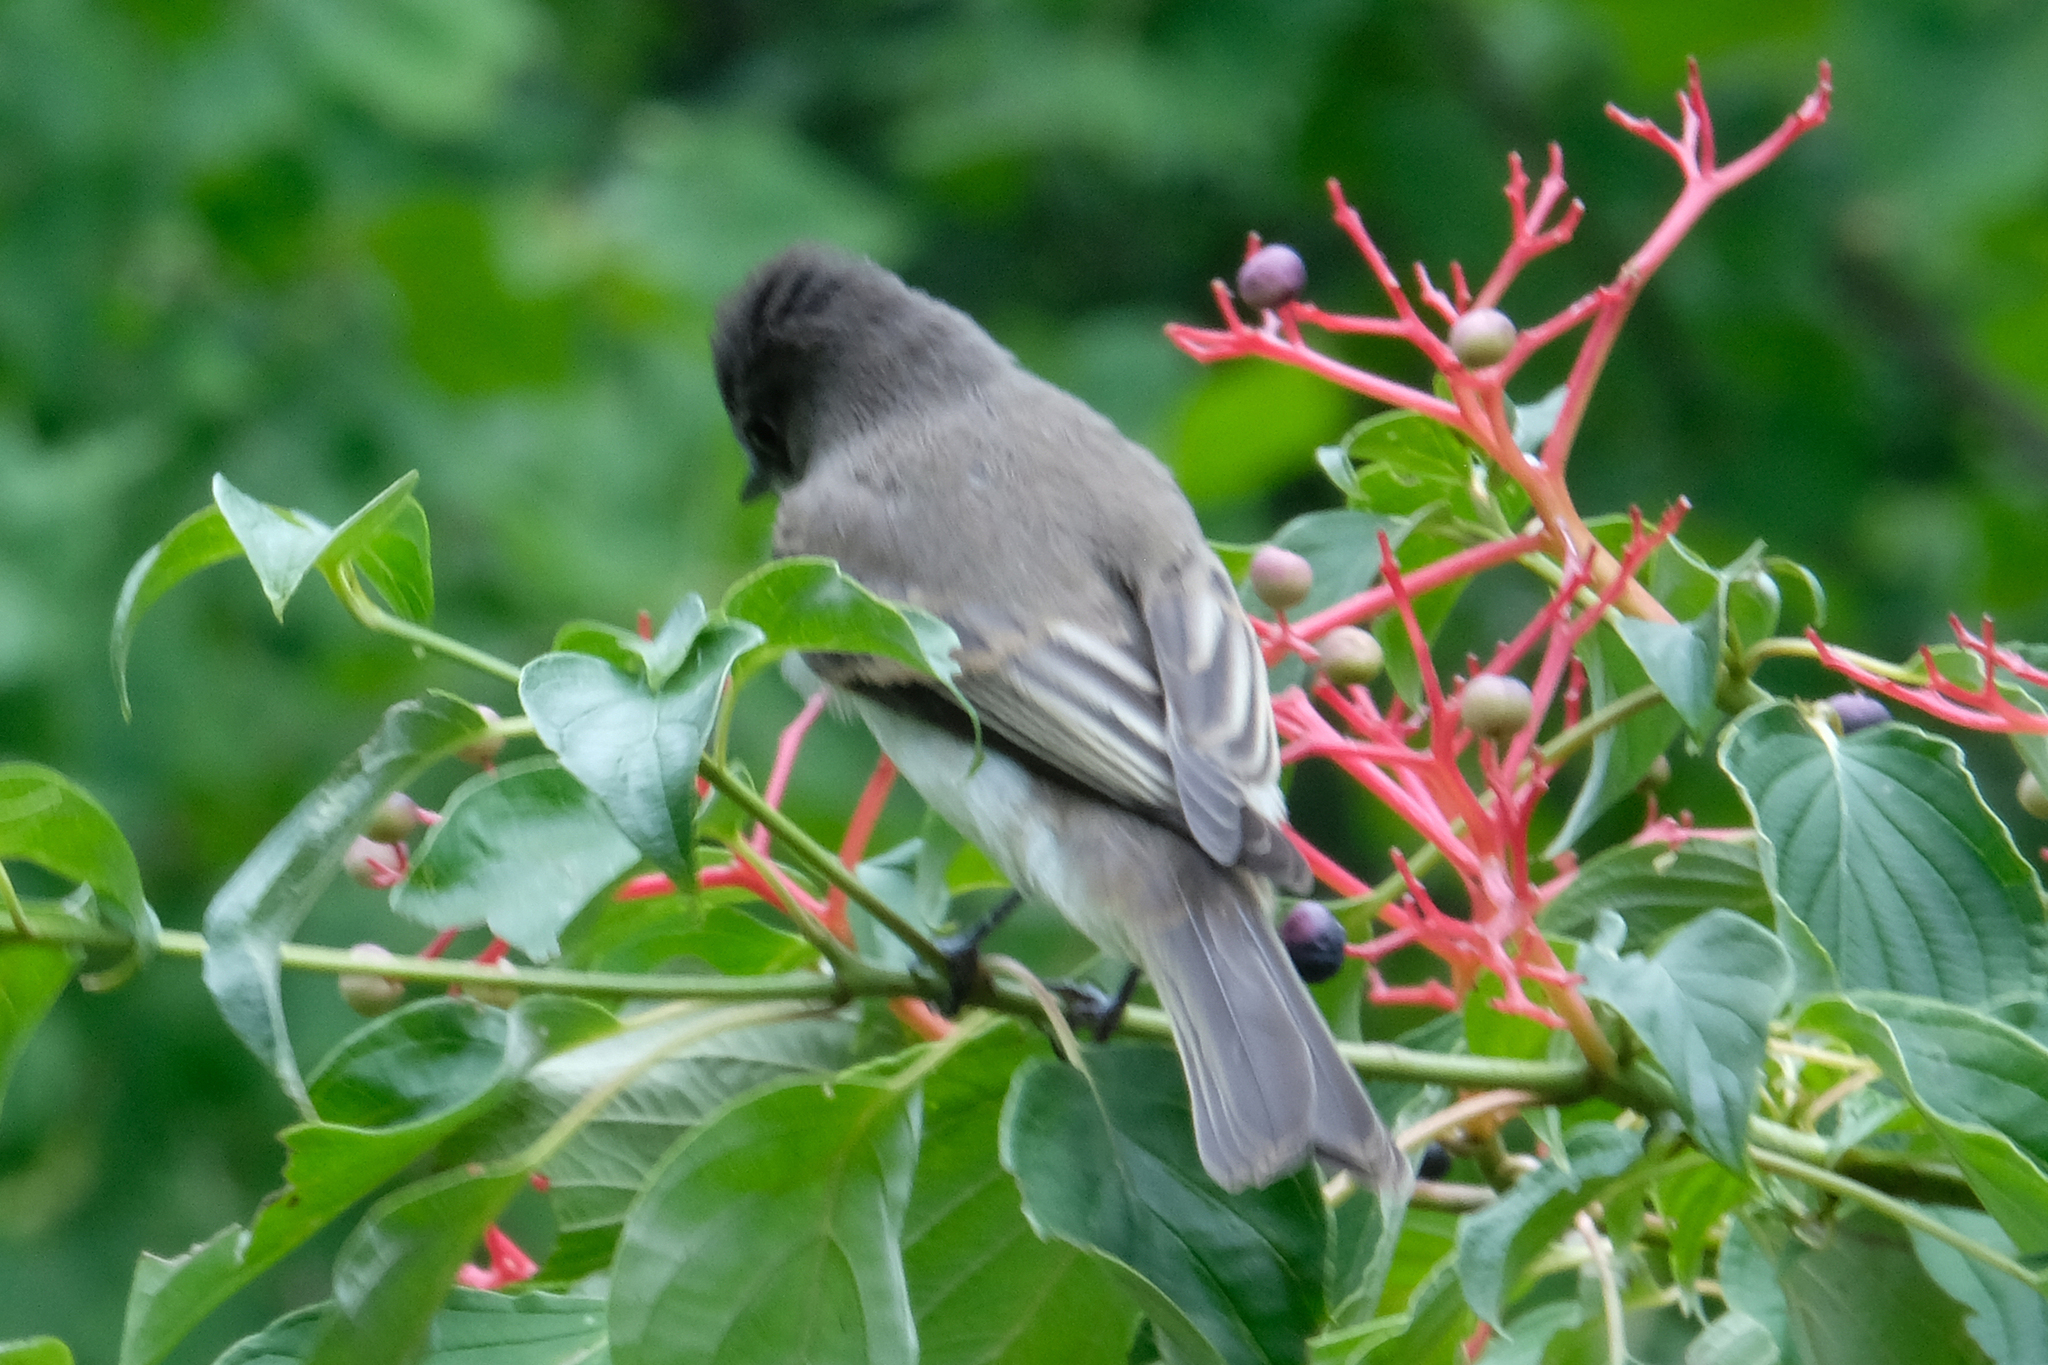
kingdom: Animalia
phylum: Chordata
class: Aves
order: Passeriformes
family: Tyrannidae
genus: Sayornis
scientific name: Sayornis phoebe
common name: Eastern phoebe
